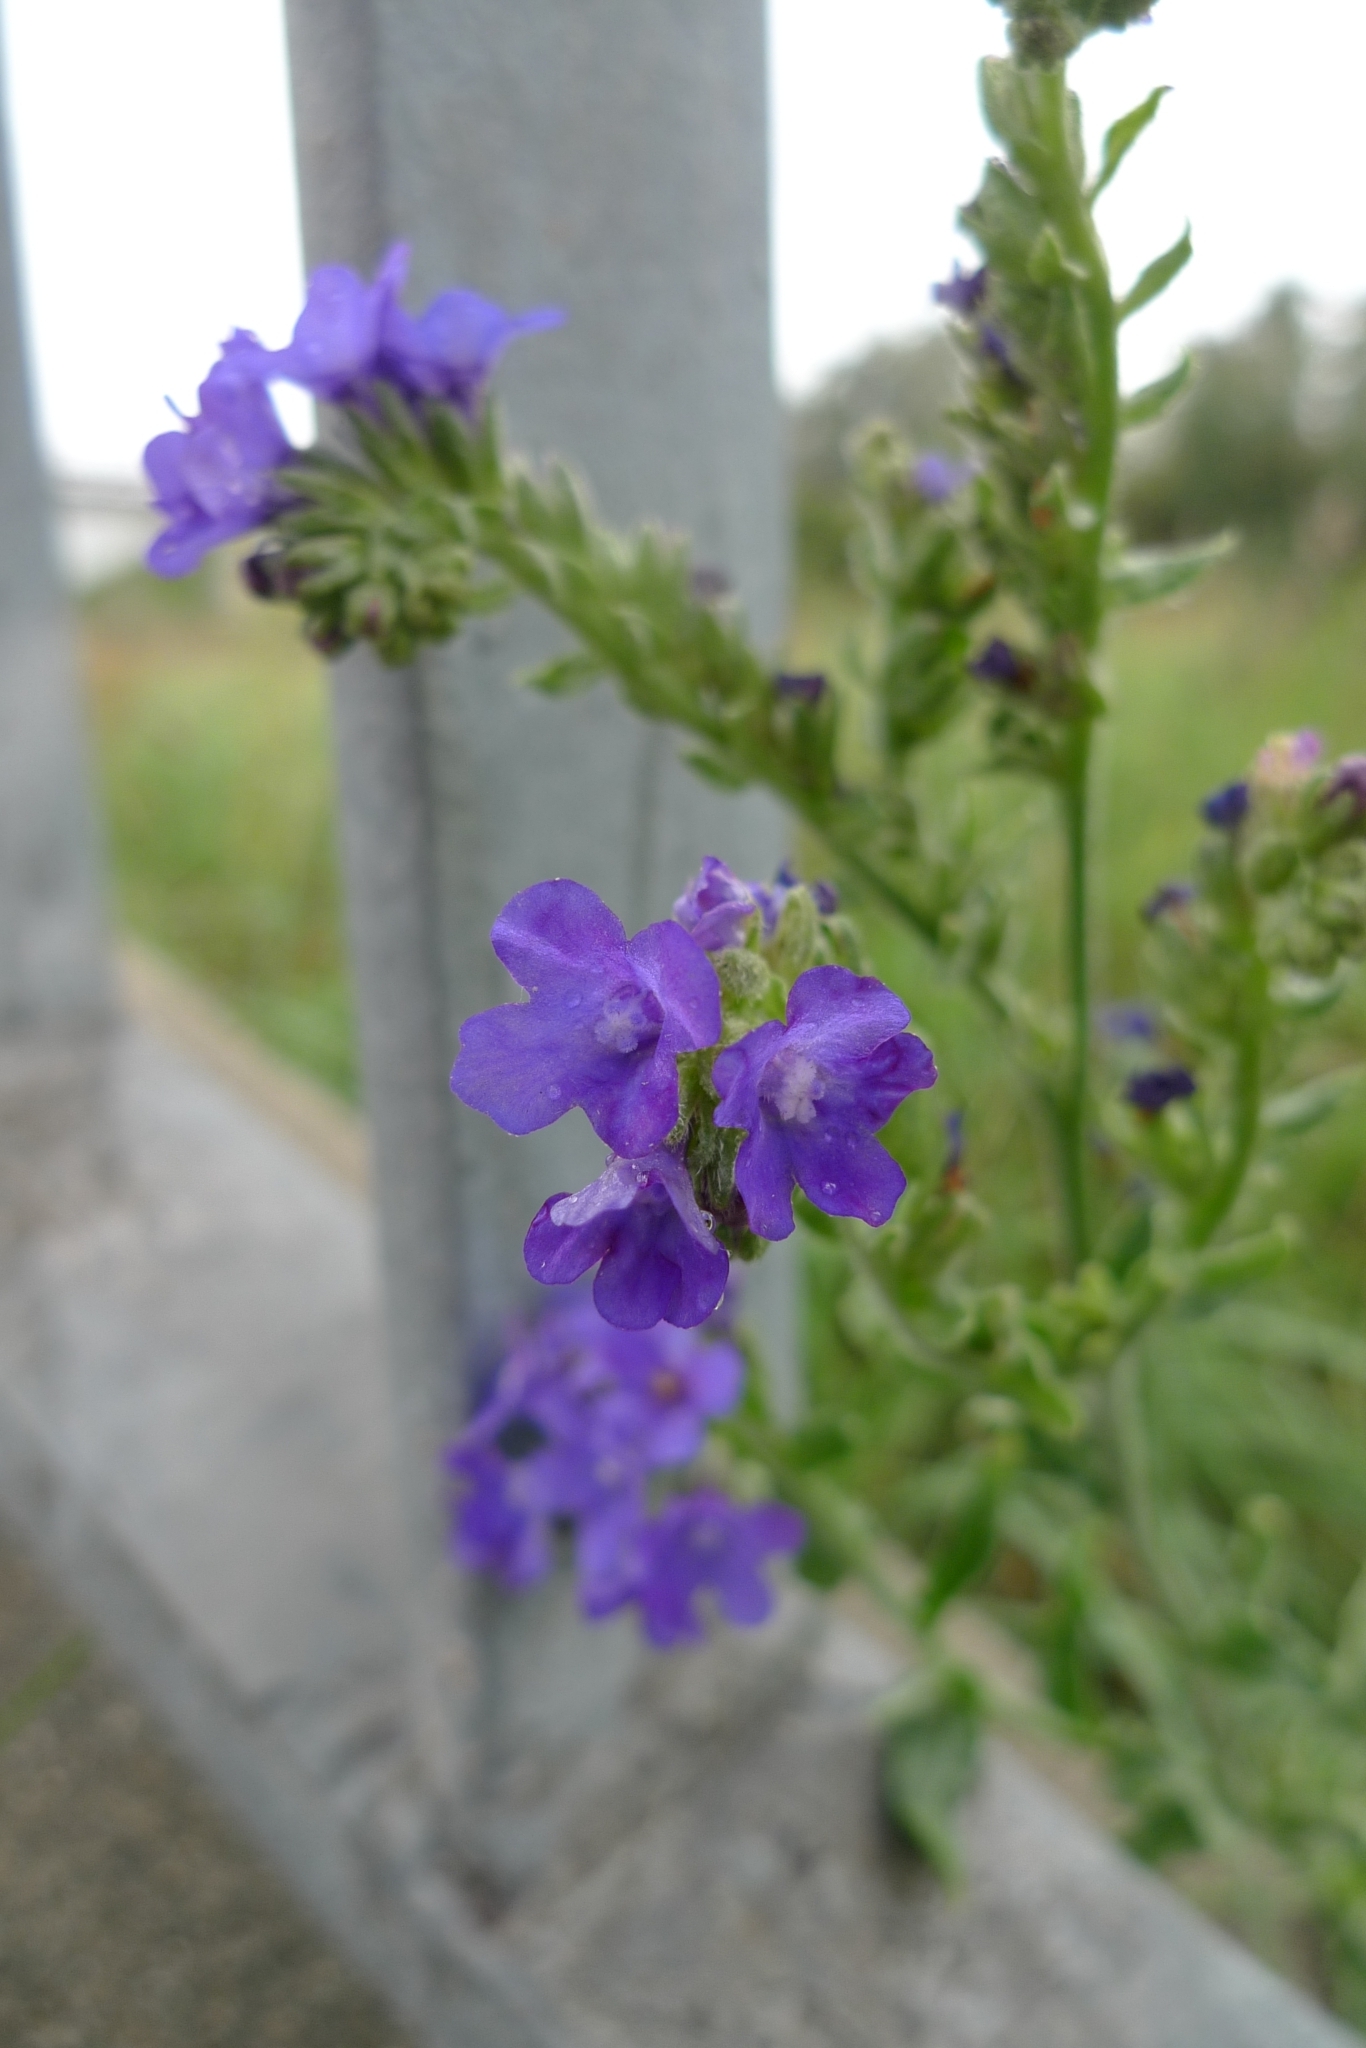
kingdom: Plantae
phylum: Tracheophyta
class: Magnoliopsida
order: Boraginales
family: Boraginaceae
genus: Anchusa
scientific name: Anchusa officinalis
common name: Alkanet
